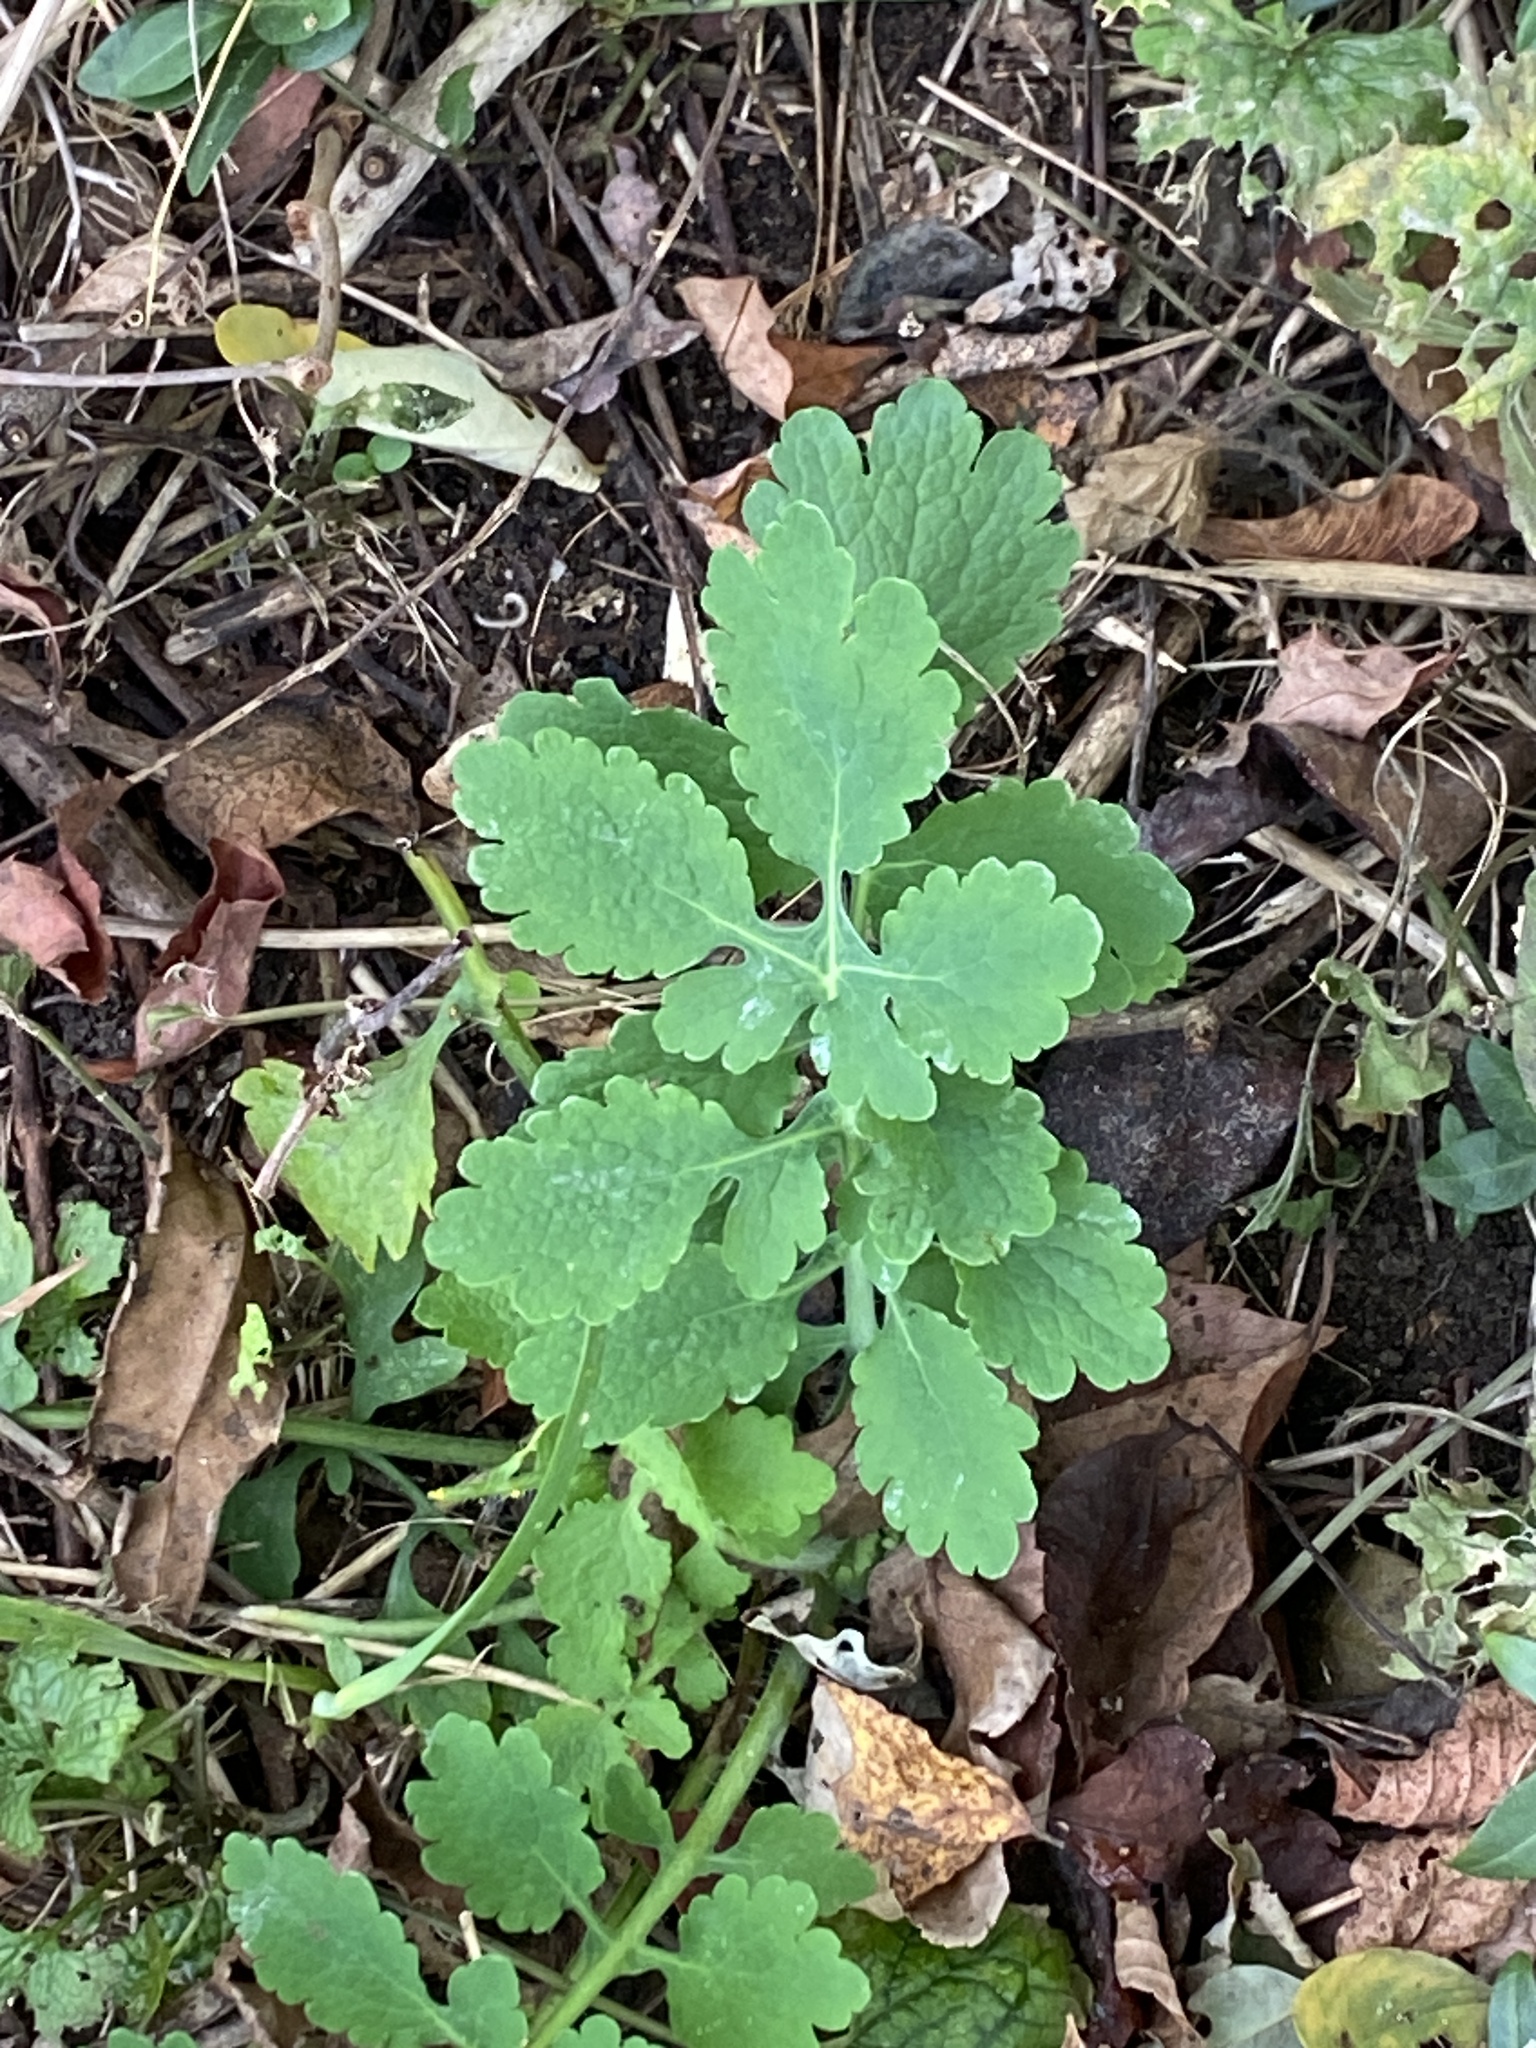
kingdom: Plantae
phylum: Tracheophyta
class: Magnoliopsida
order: Ranunculales
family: Papaveraceae
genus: Chelidonium
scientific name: Chelidonium majus
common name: Greater celandine
